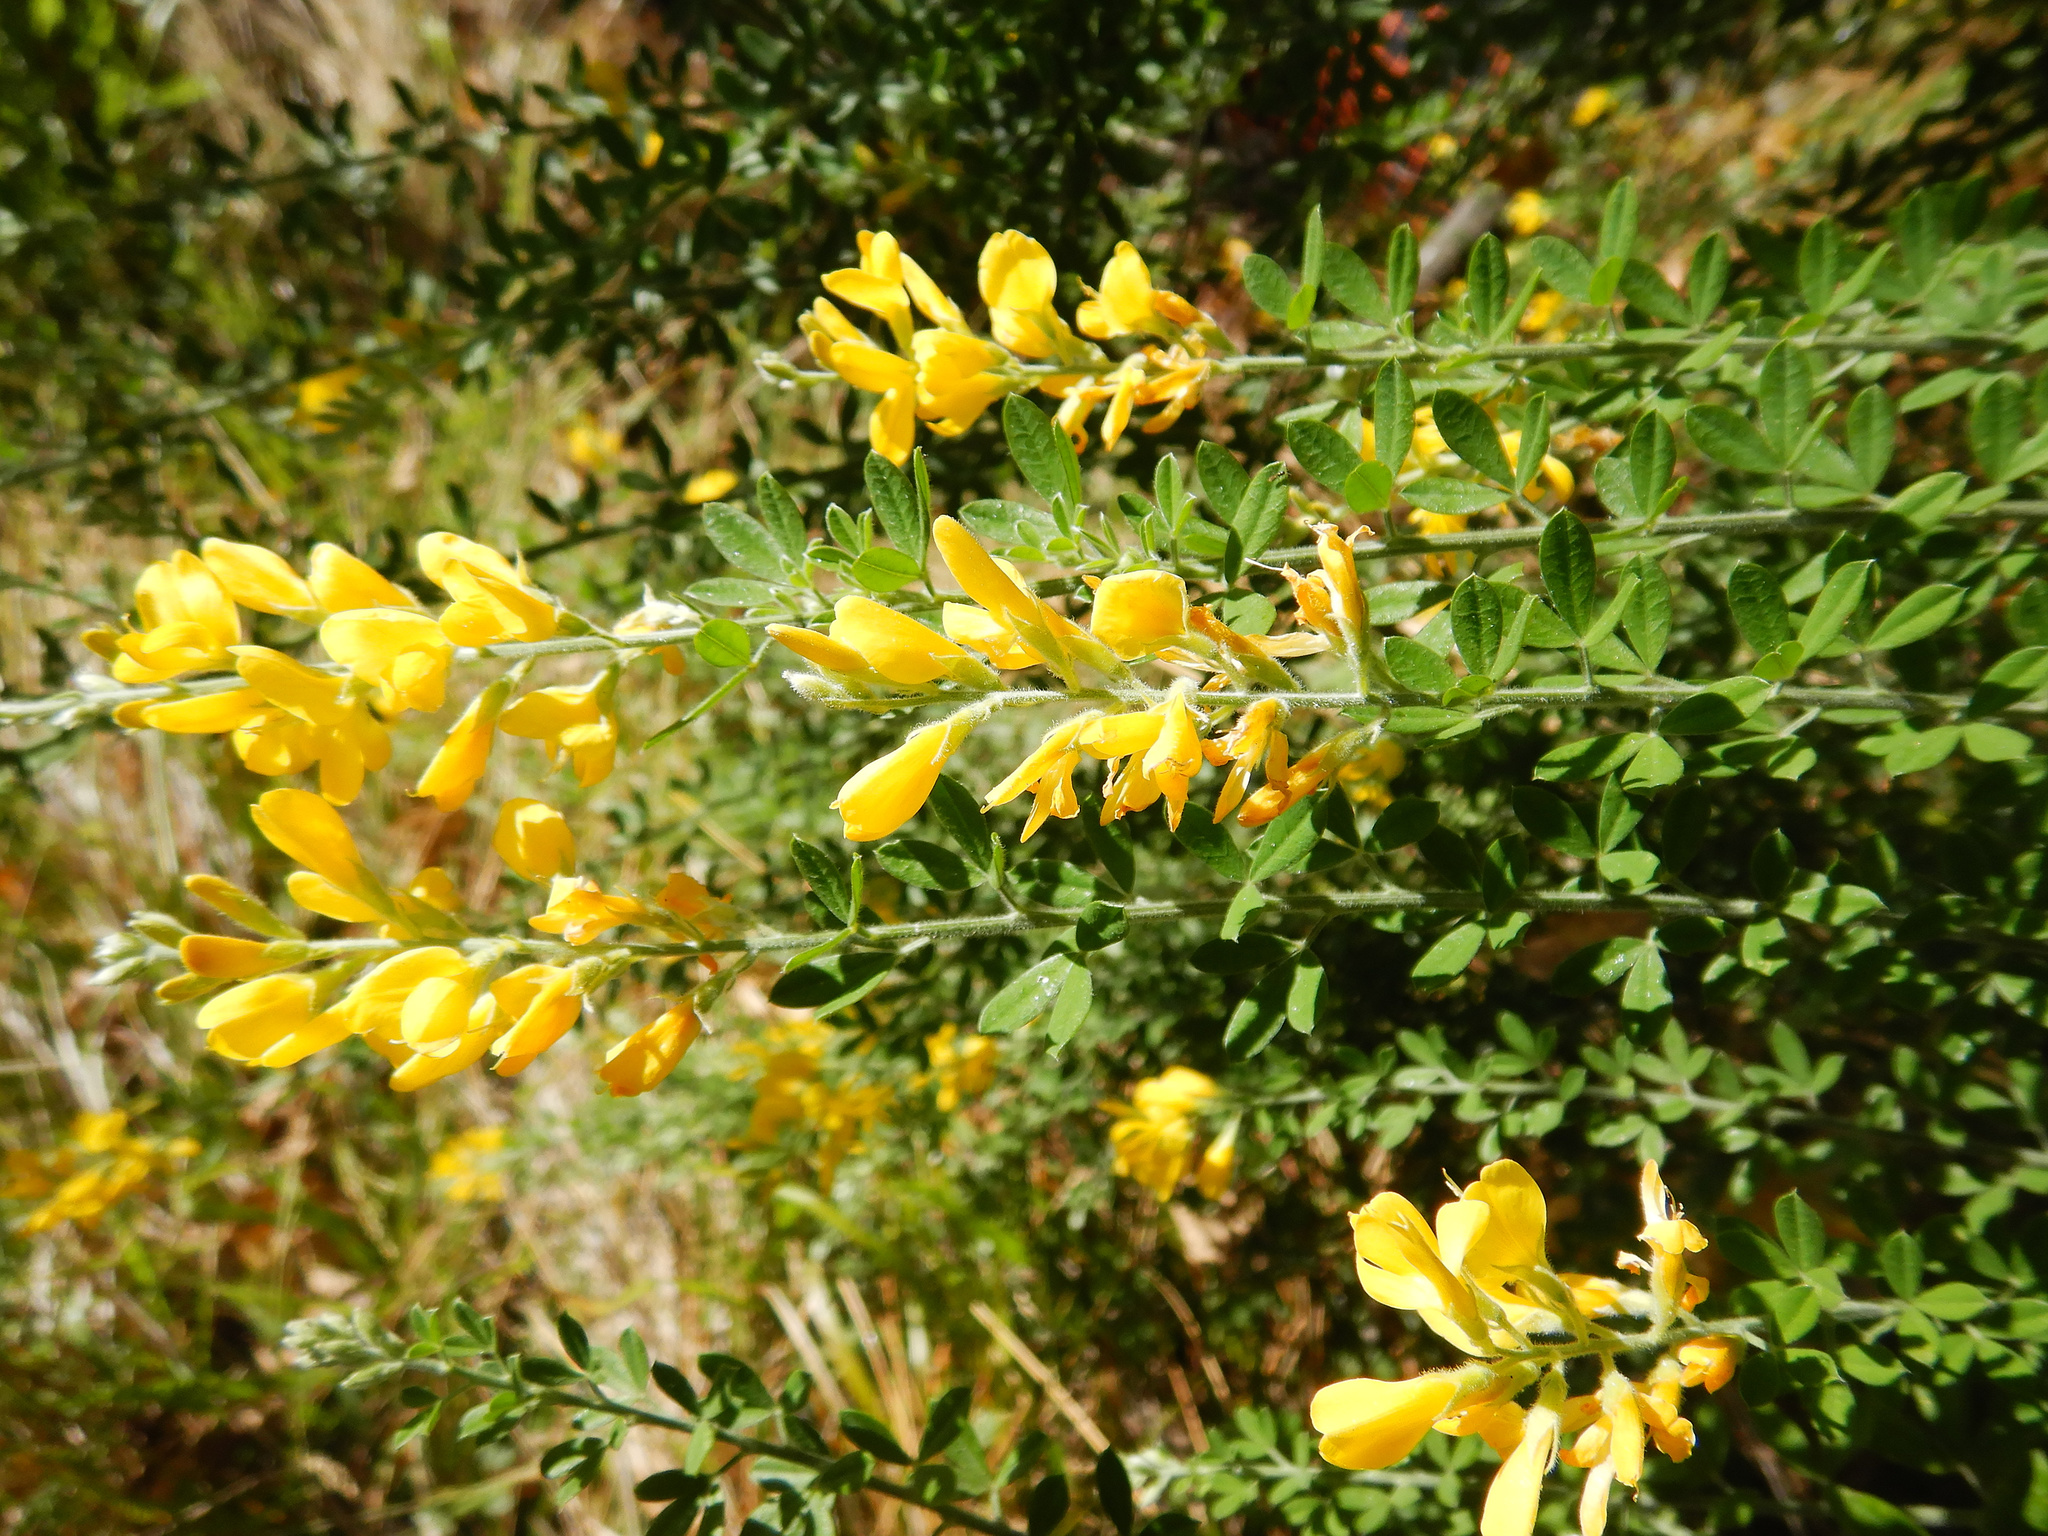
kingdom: Plantae
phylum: Tracheophyta
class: Magnoliopsida
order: Fabales
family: Fabaceae
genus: Genista
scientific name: Genista stenopetala
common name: Leafy broom
